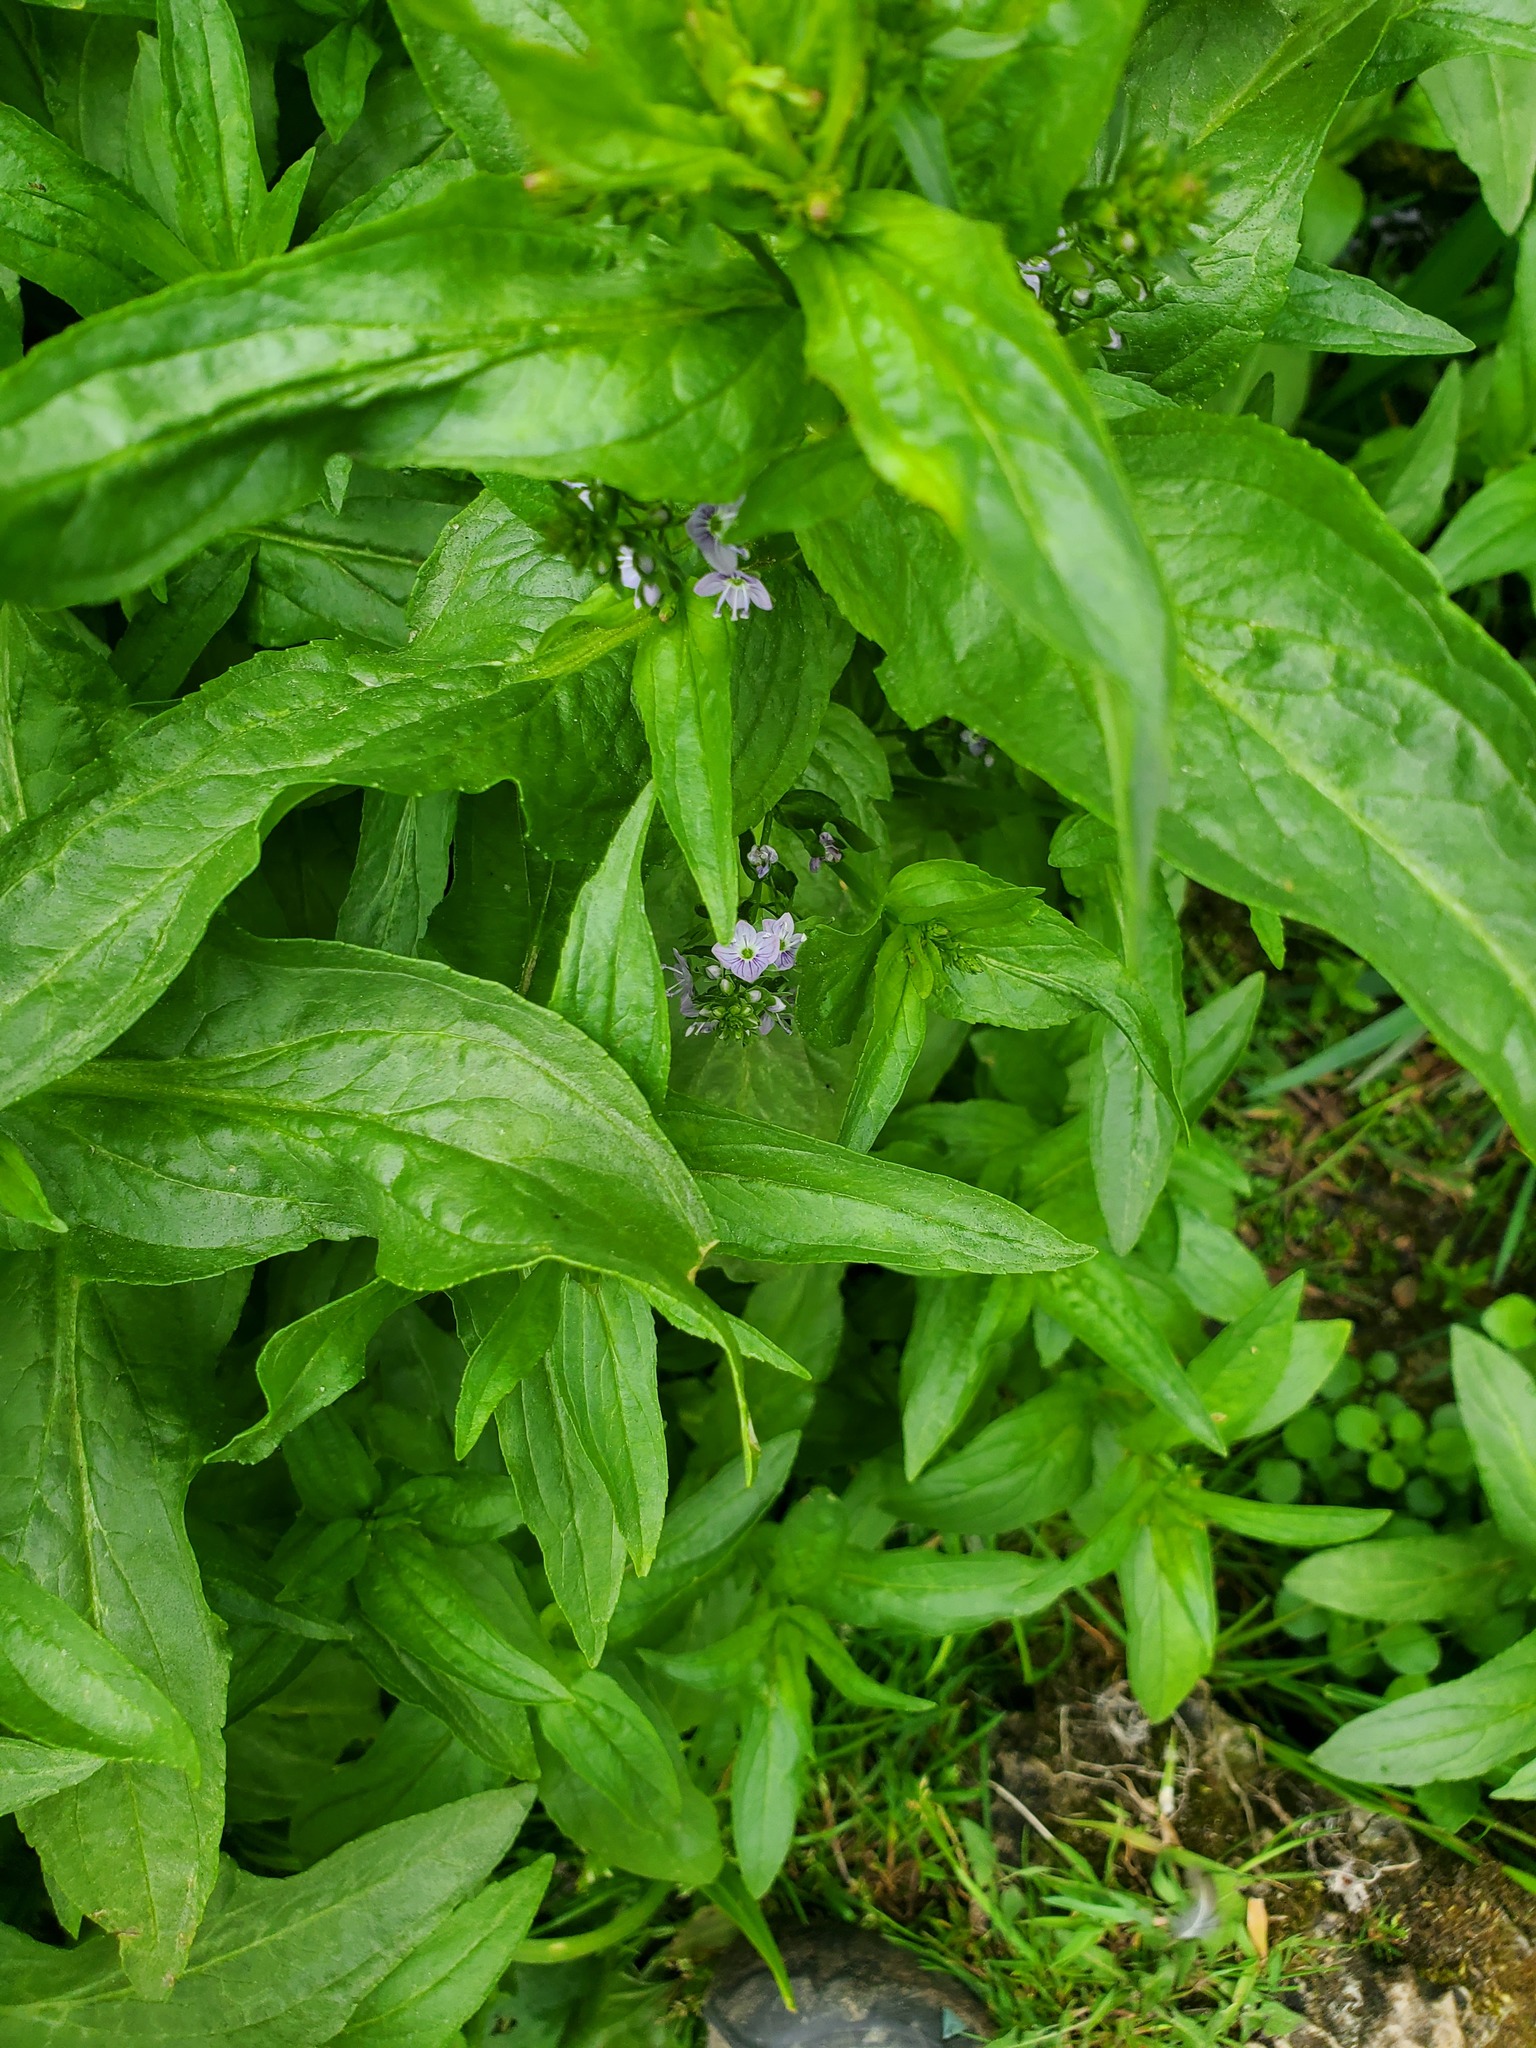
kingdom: Plantae
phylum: Tracheophyta
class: Magnoliopsida
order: Lamiales
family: Plantaginaceae
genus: Veronica
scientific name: Veronica anagallis-aquatica
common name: Water speedwell
